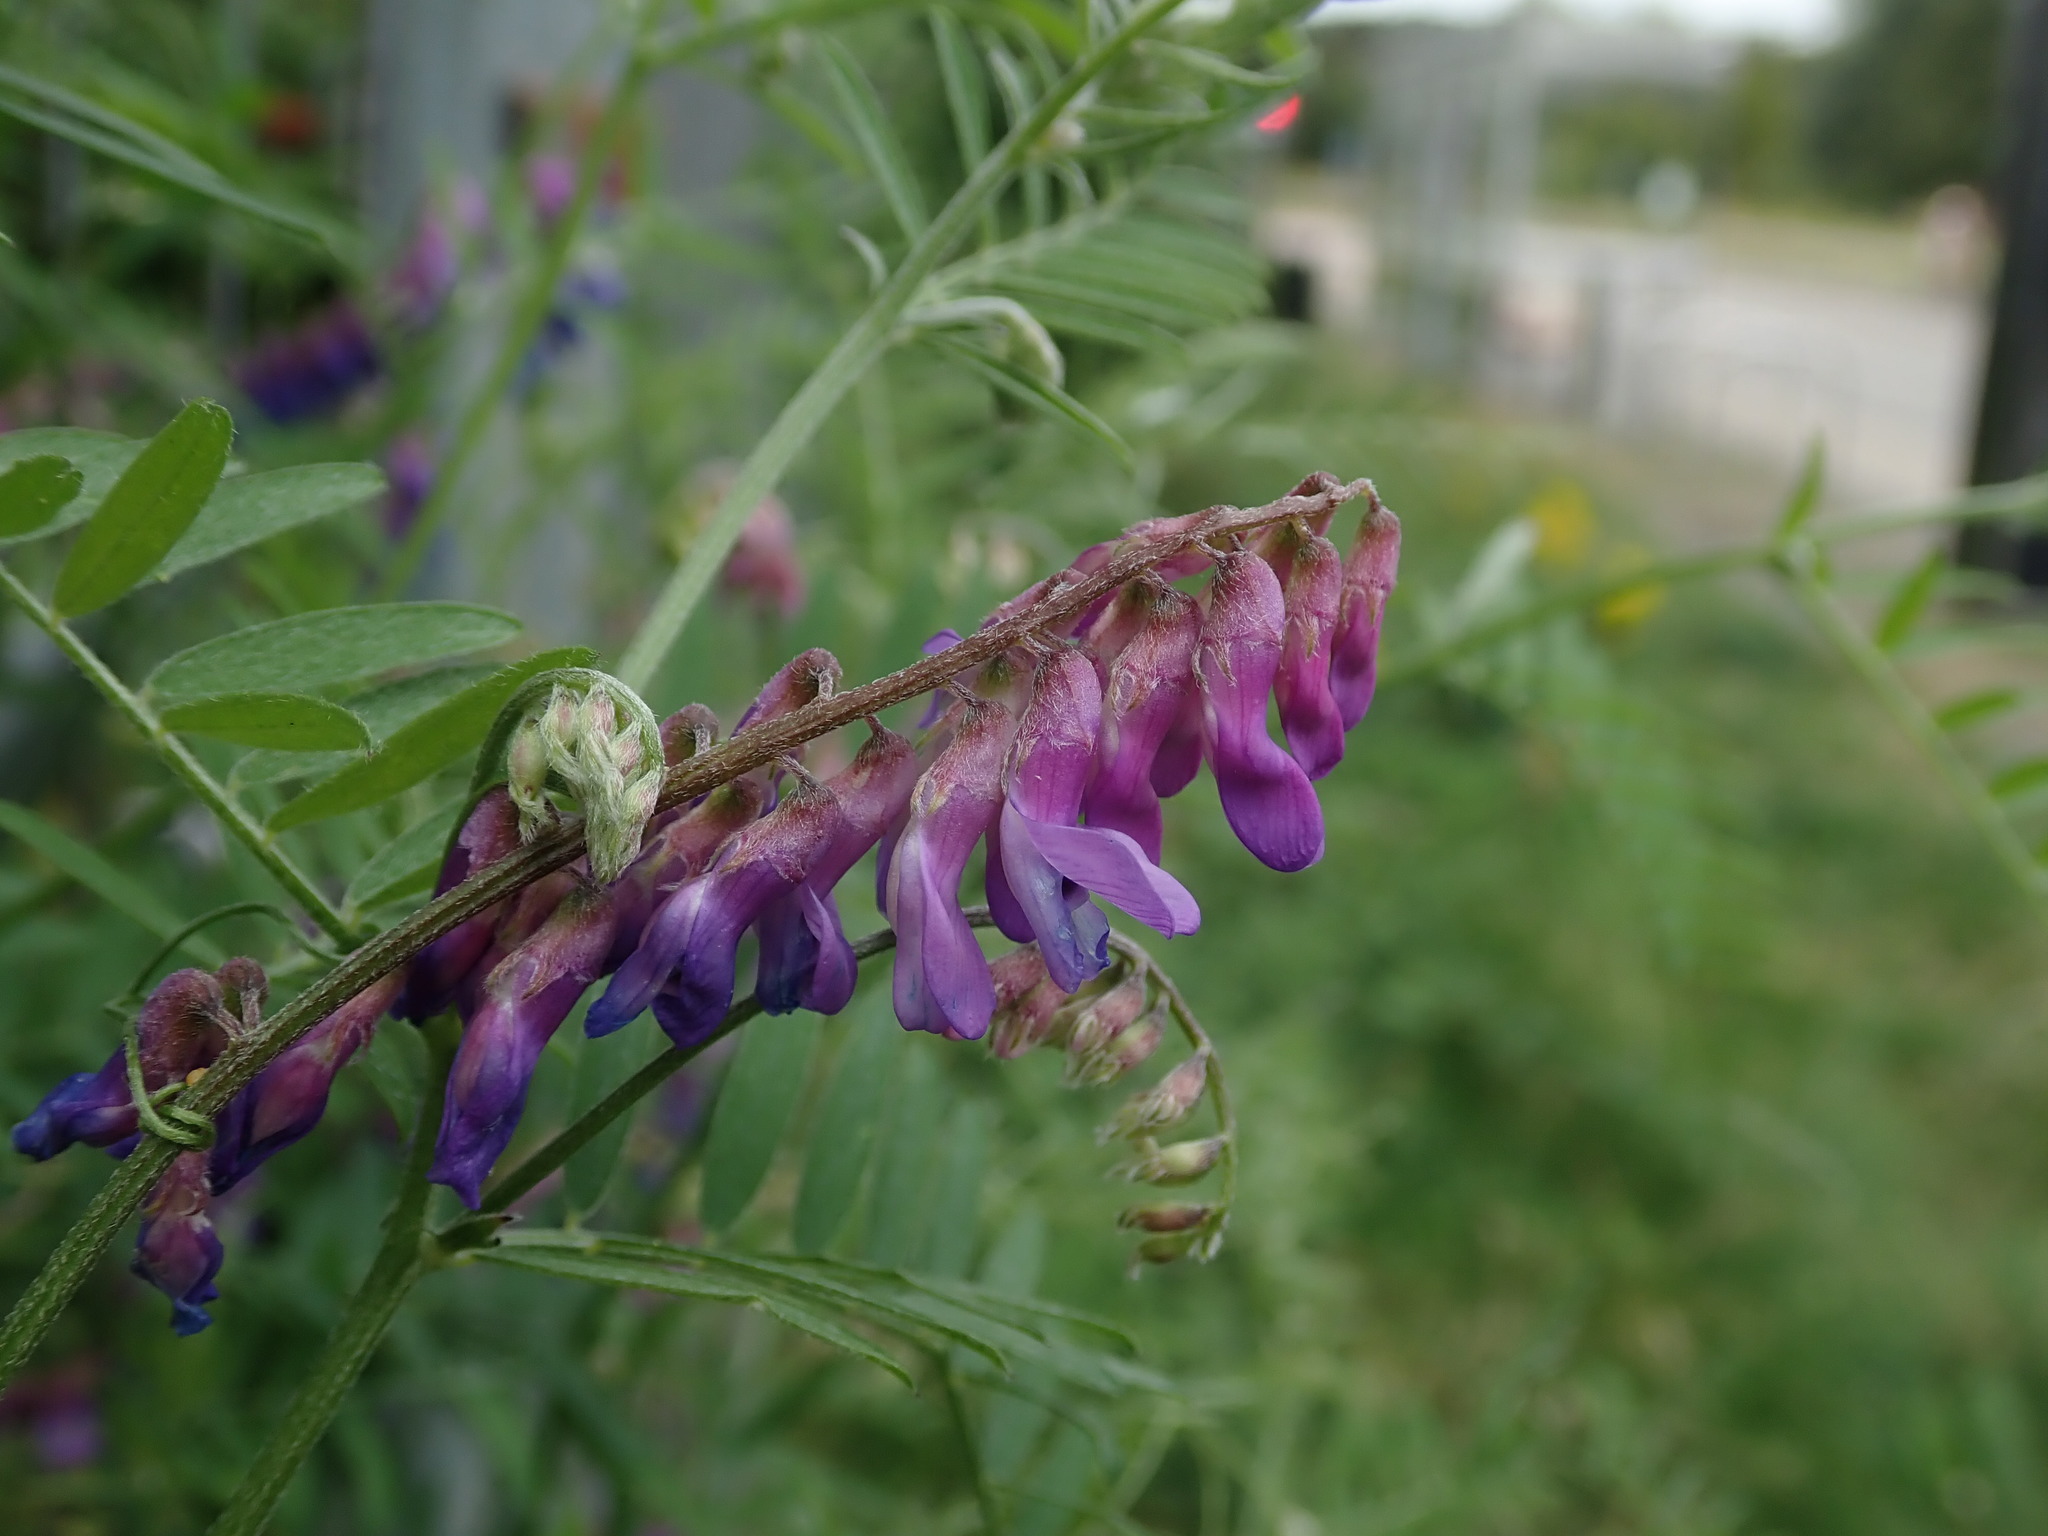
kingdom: Plantae
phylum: Tracheophyta
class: Magnoliopsida
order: Fabales
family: Fabaceae
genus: Vicia
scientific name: Vicia cracca
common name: Bird vetch
